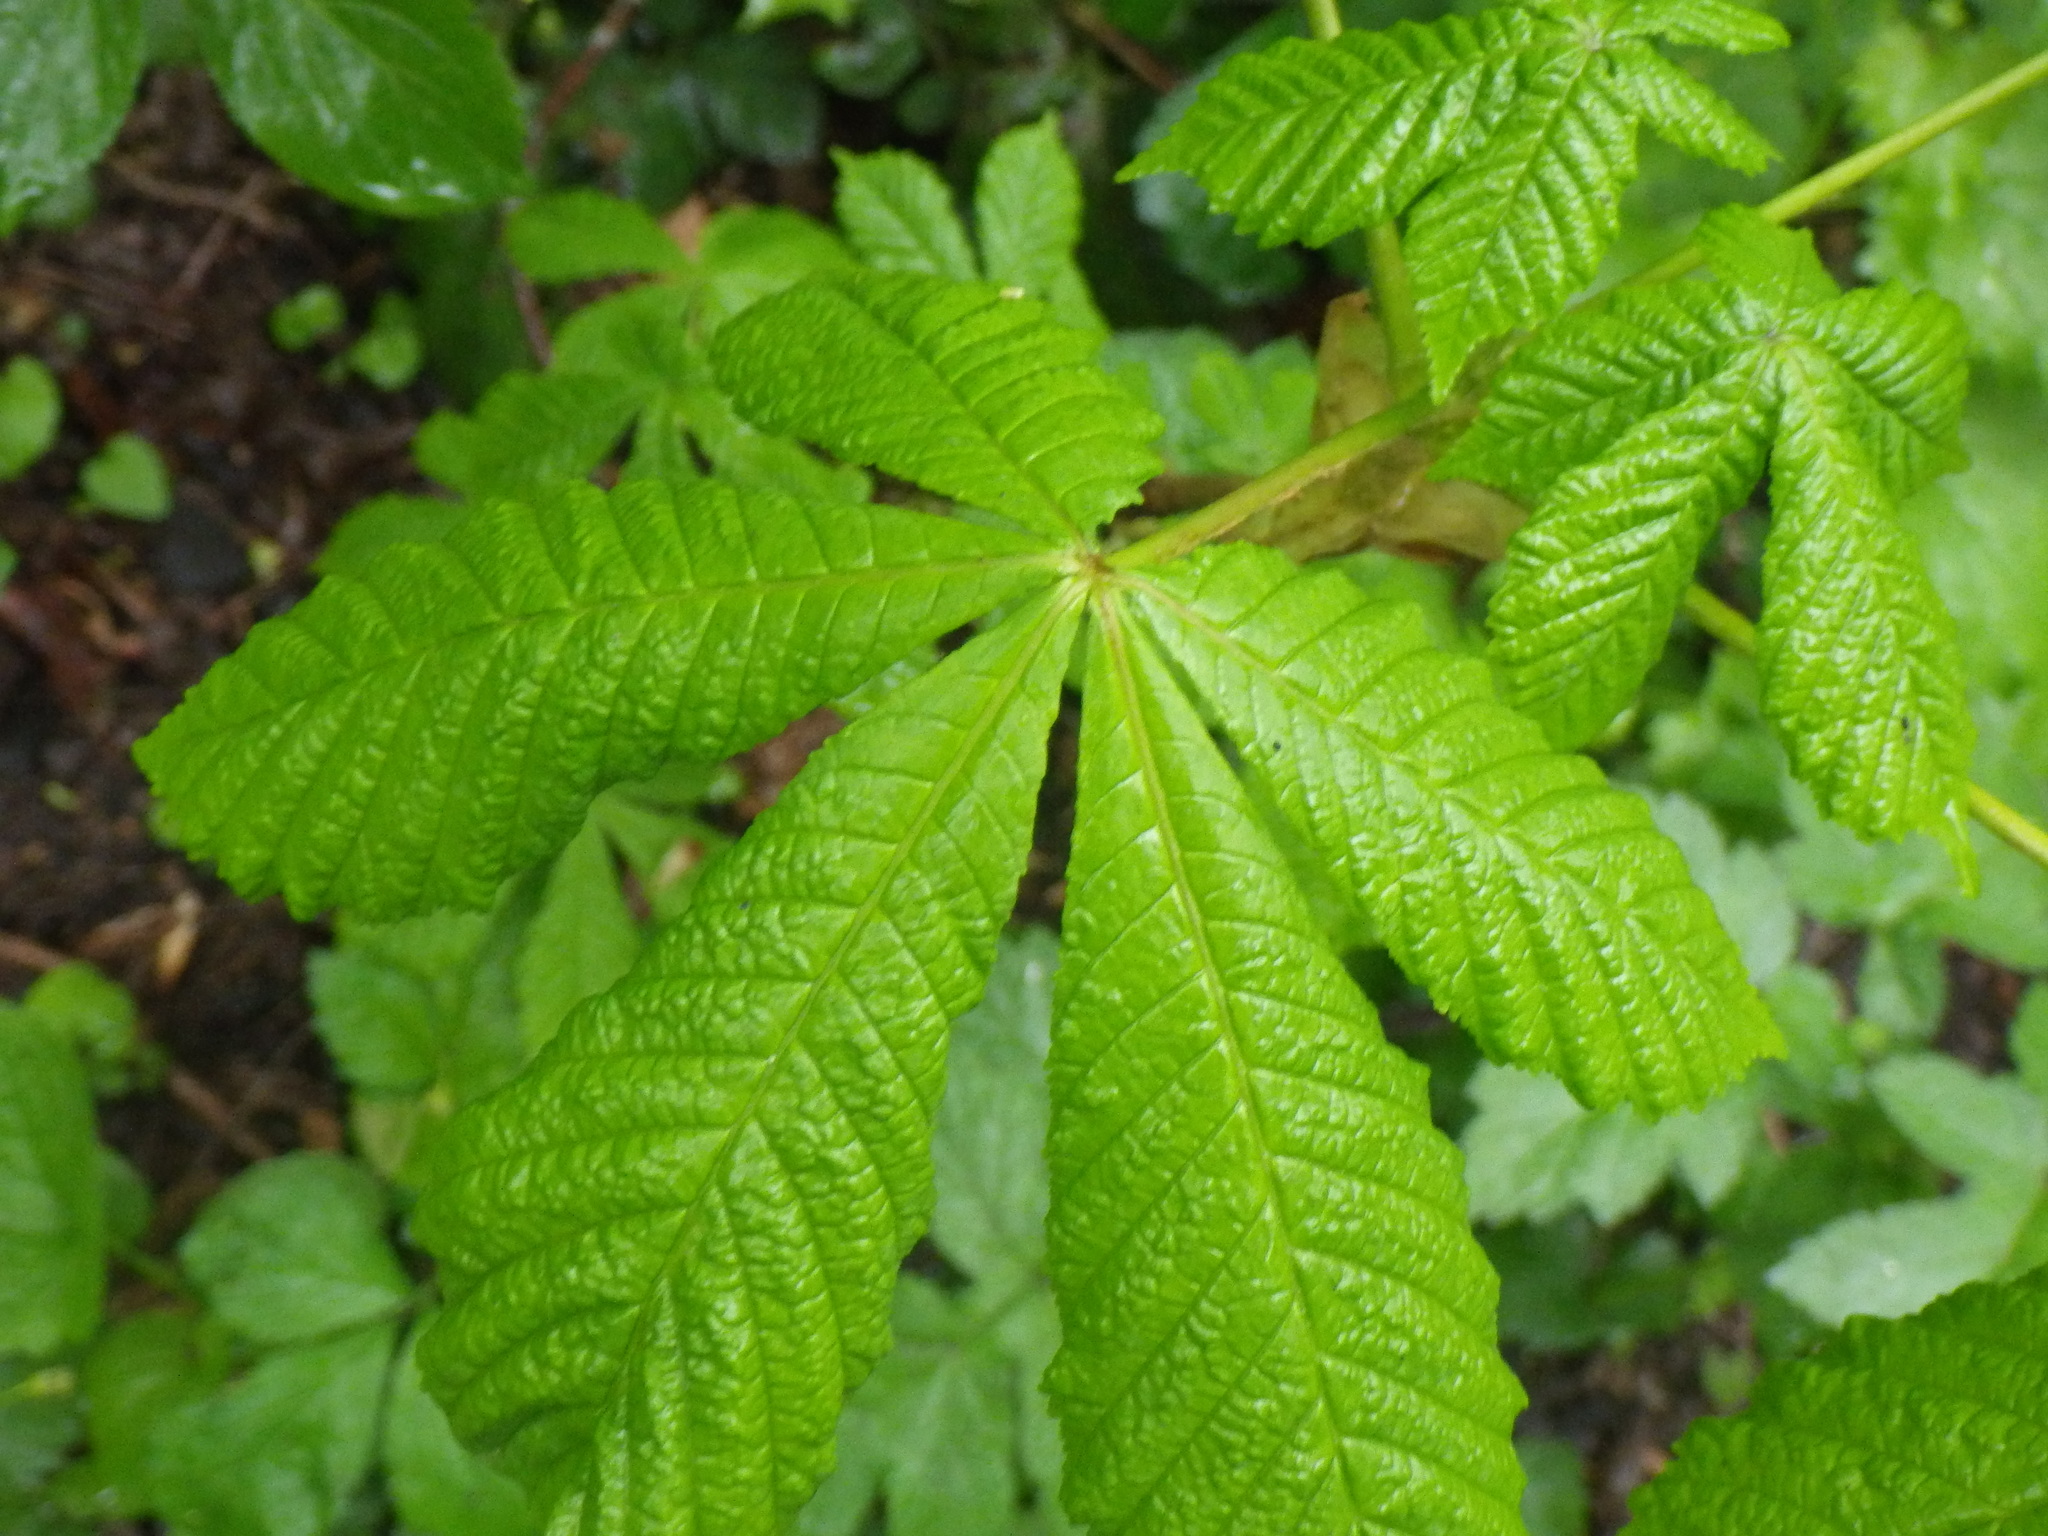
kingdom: Plantae
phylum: Tracheophyta
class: Magnoliopsida
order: Sapindales
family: Sapindaceae
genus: Aesculus
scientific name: Aesculus hippocastanum
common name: Horse-chestnut
